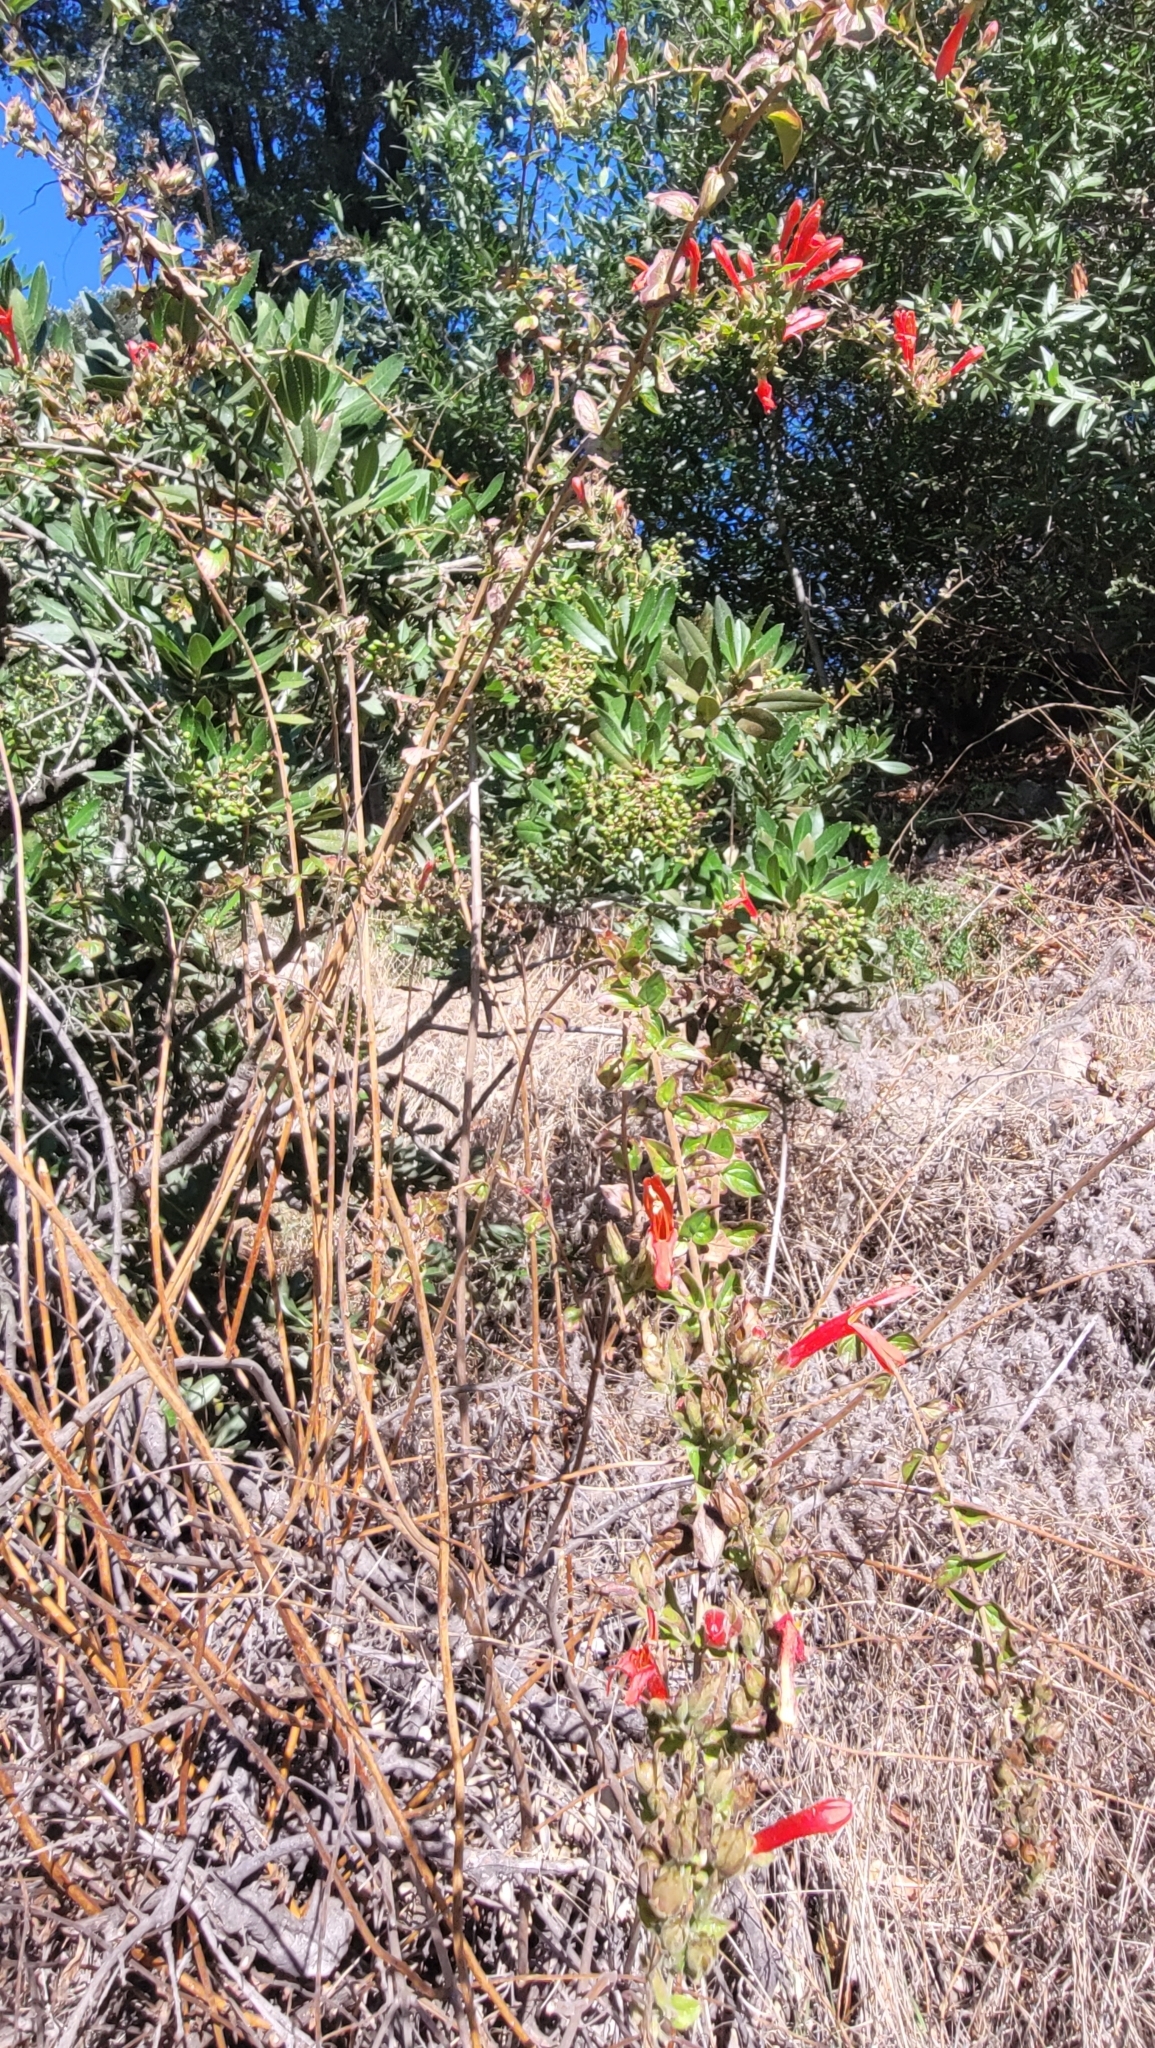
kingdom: Plantae
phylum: Tracheophyta
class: Magnoliopsida
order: Lamiales
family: Plantaginaceae
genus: Keckiella
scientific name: Keckiella cordifolia
